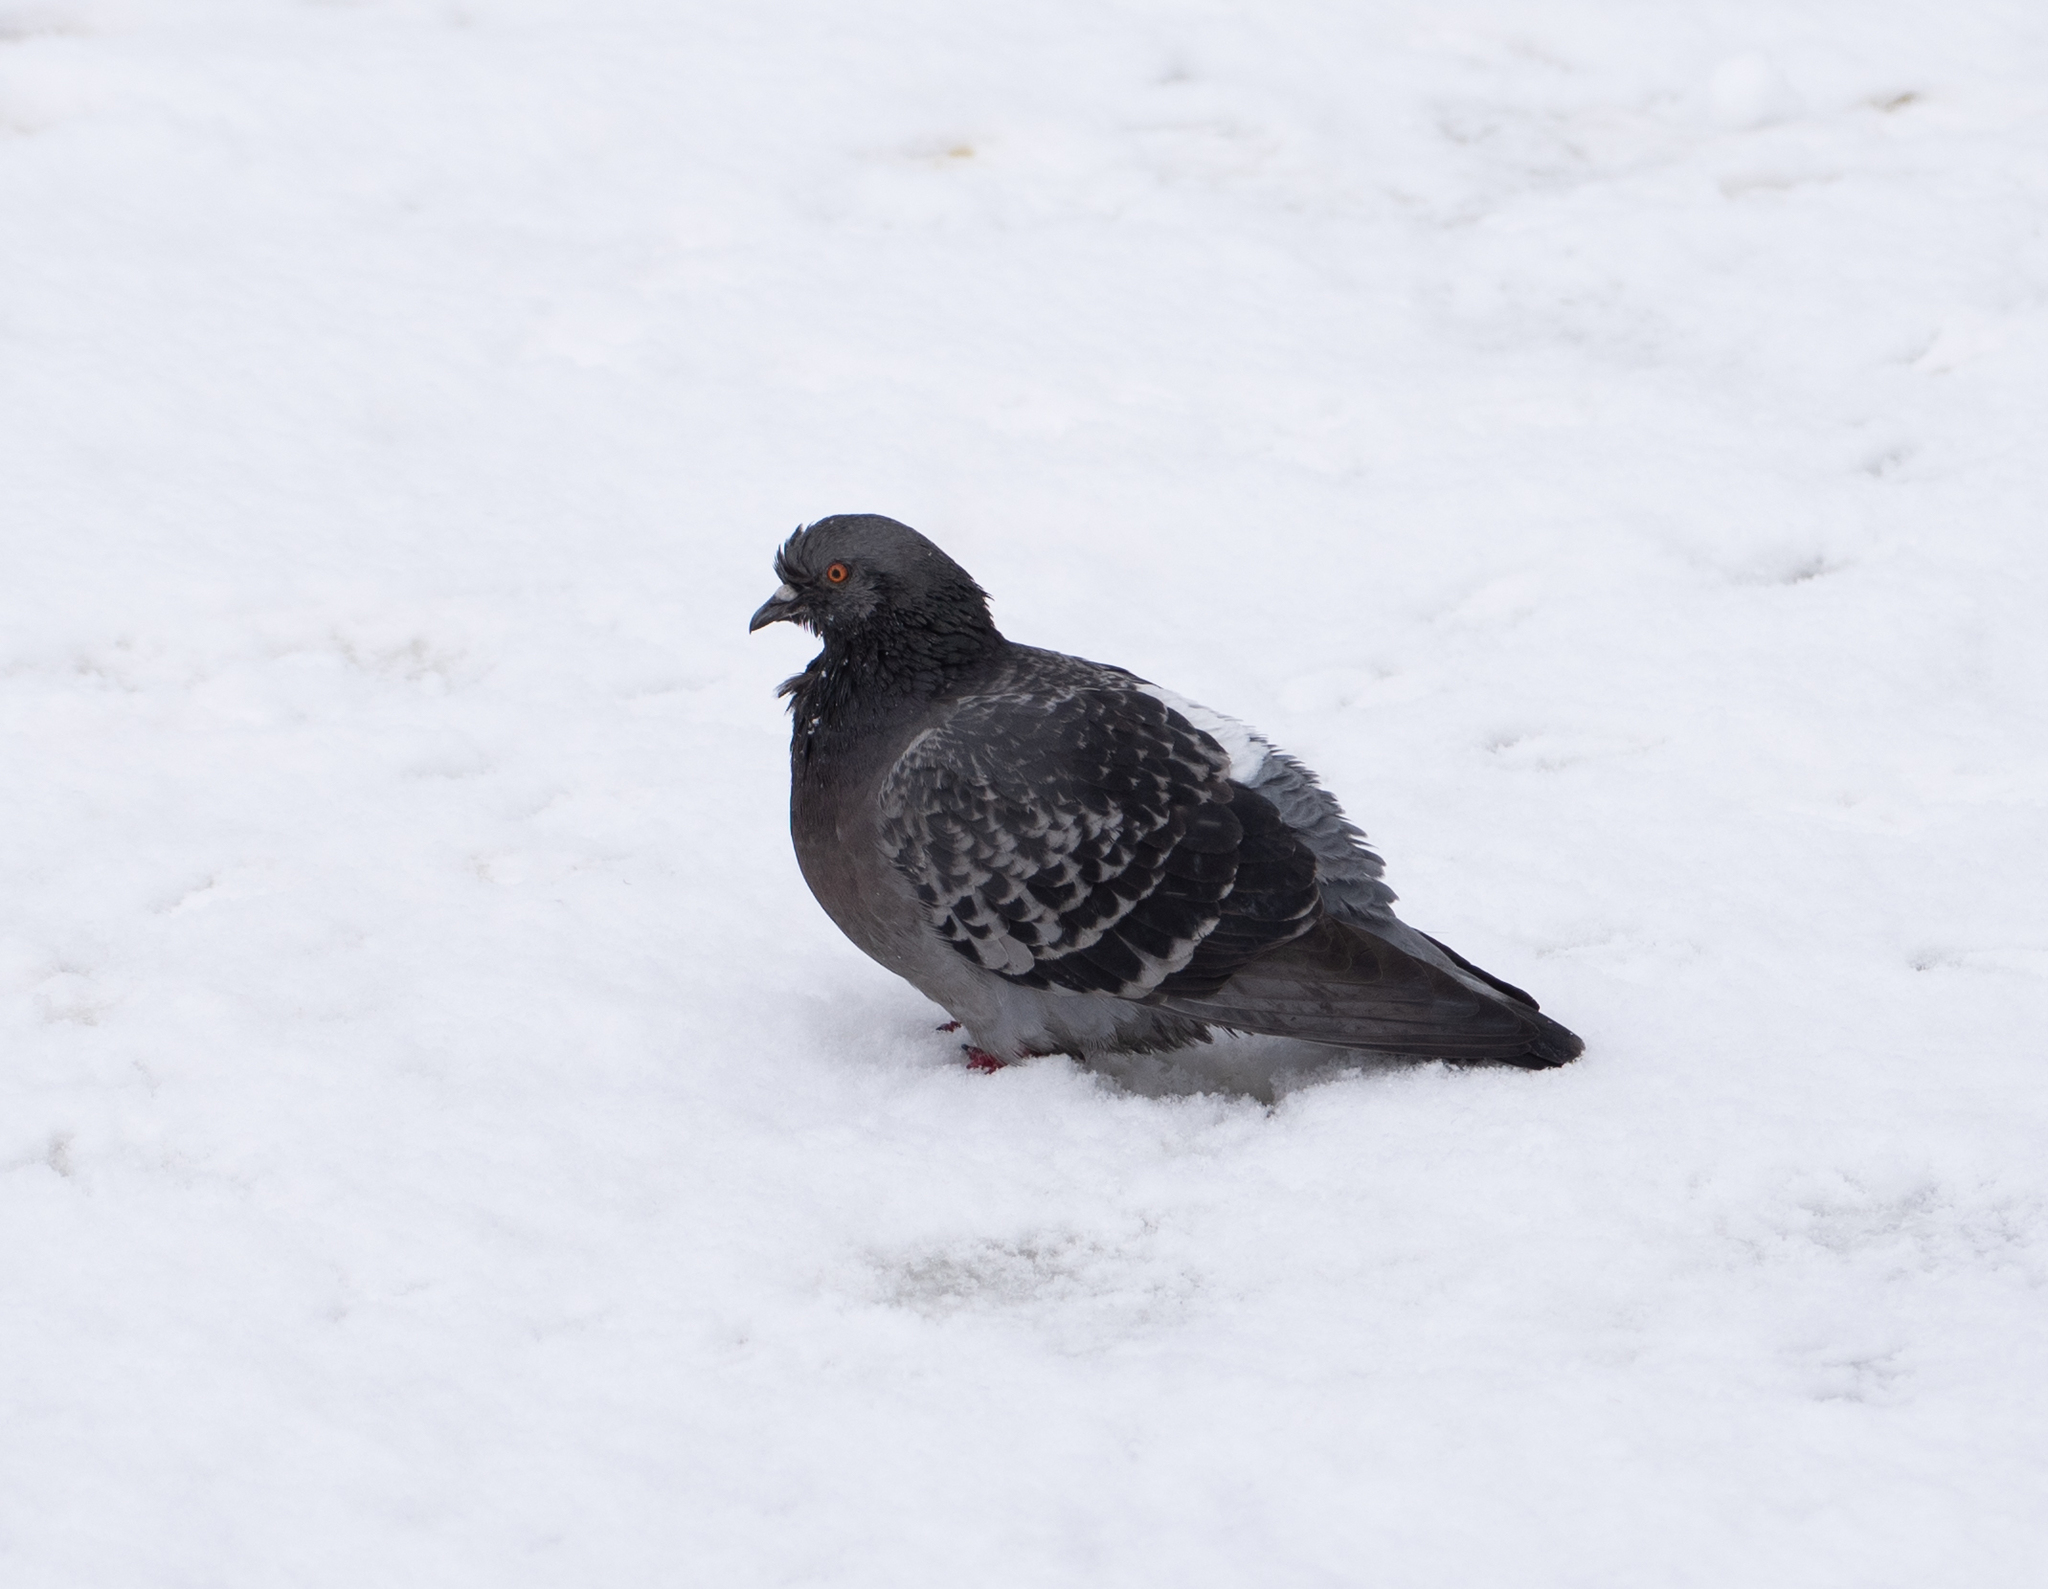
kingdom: Animalia
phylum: Chordata
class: Aves
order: Columbiformes
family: Columbidae
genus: Columba
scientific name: Columba livia
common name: Rock pigeon
